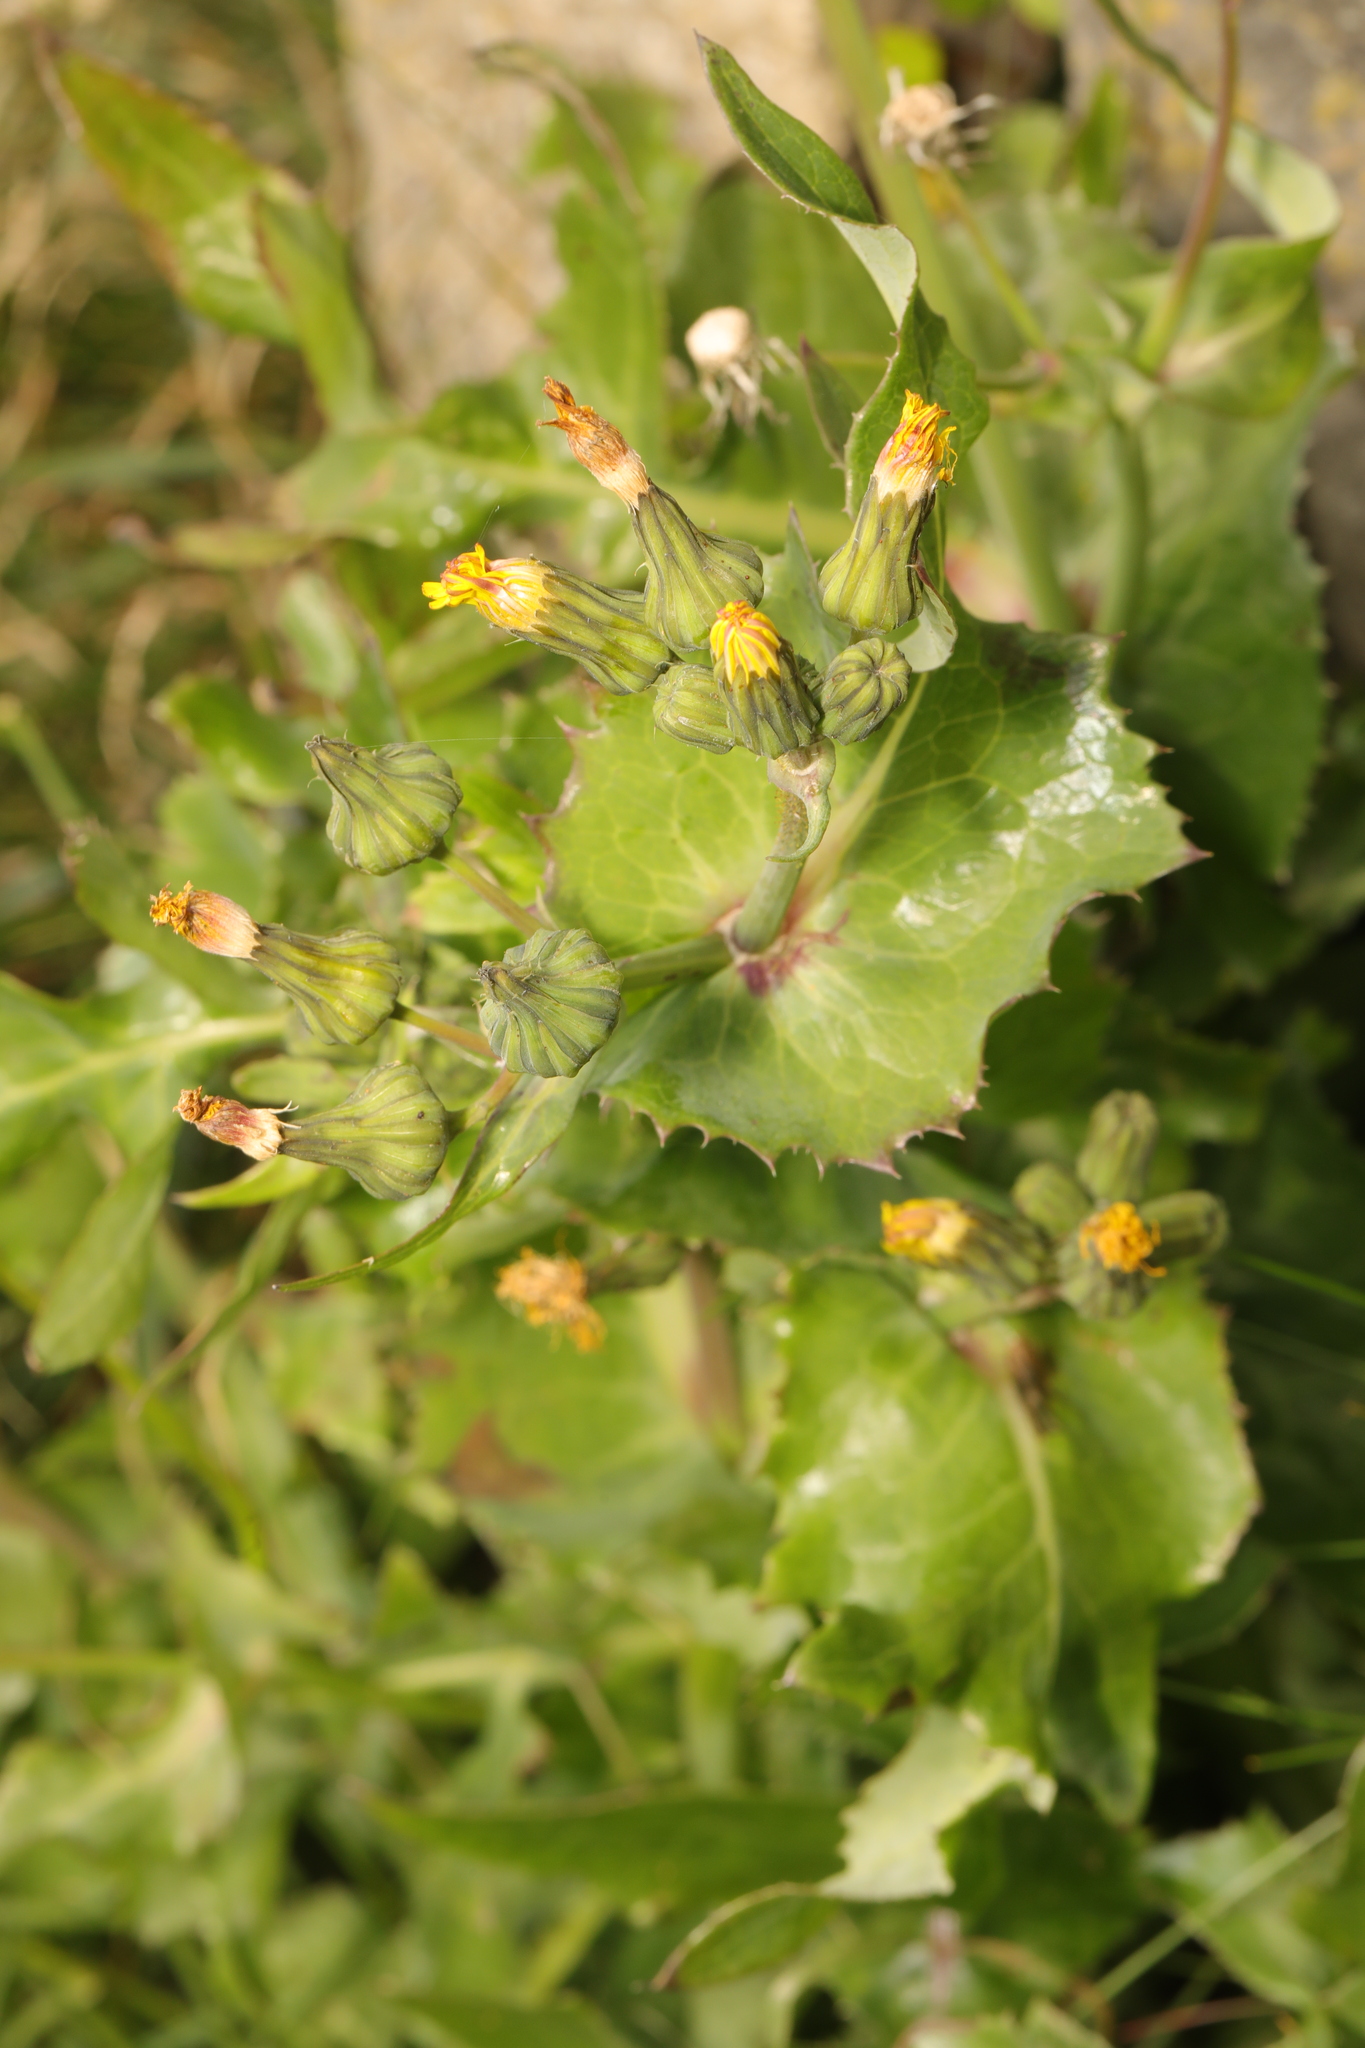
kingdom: Plantae
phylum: Tracheophyta
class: Magnoliopsida
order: Asterales
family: Asteraceae
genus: Sonchus
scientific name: Sonchus oleraceus
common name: Common sowthistle
